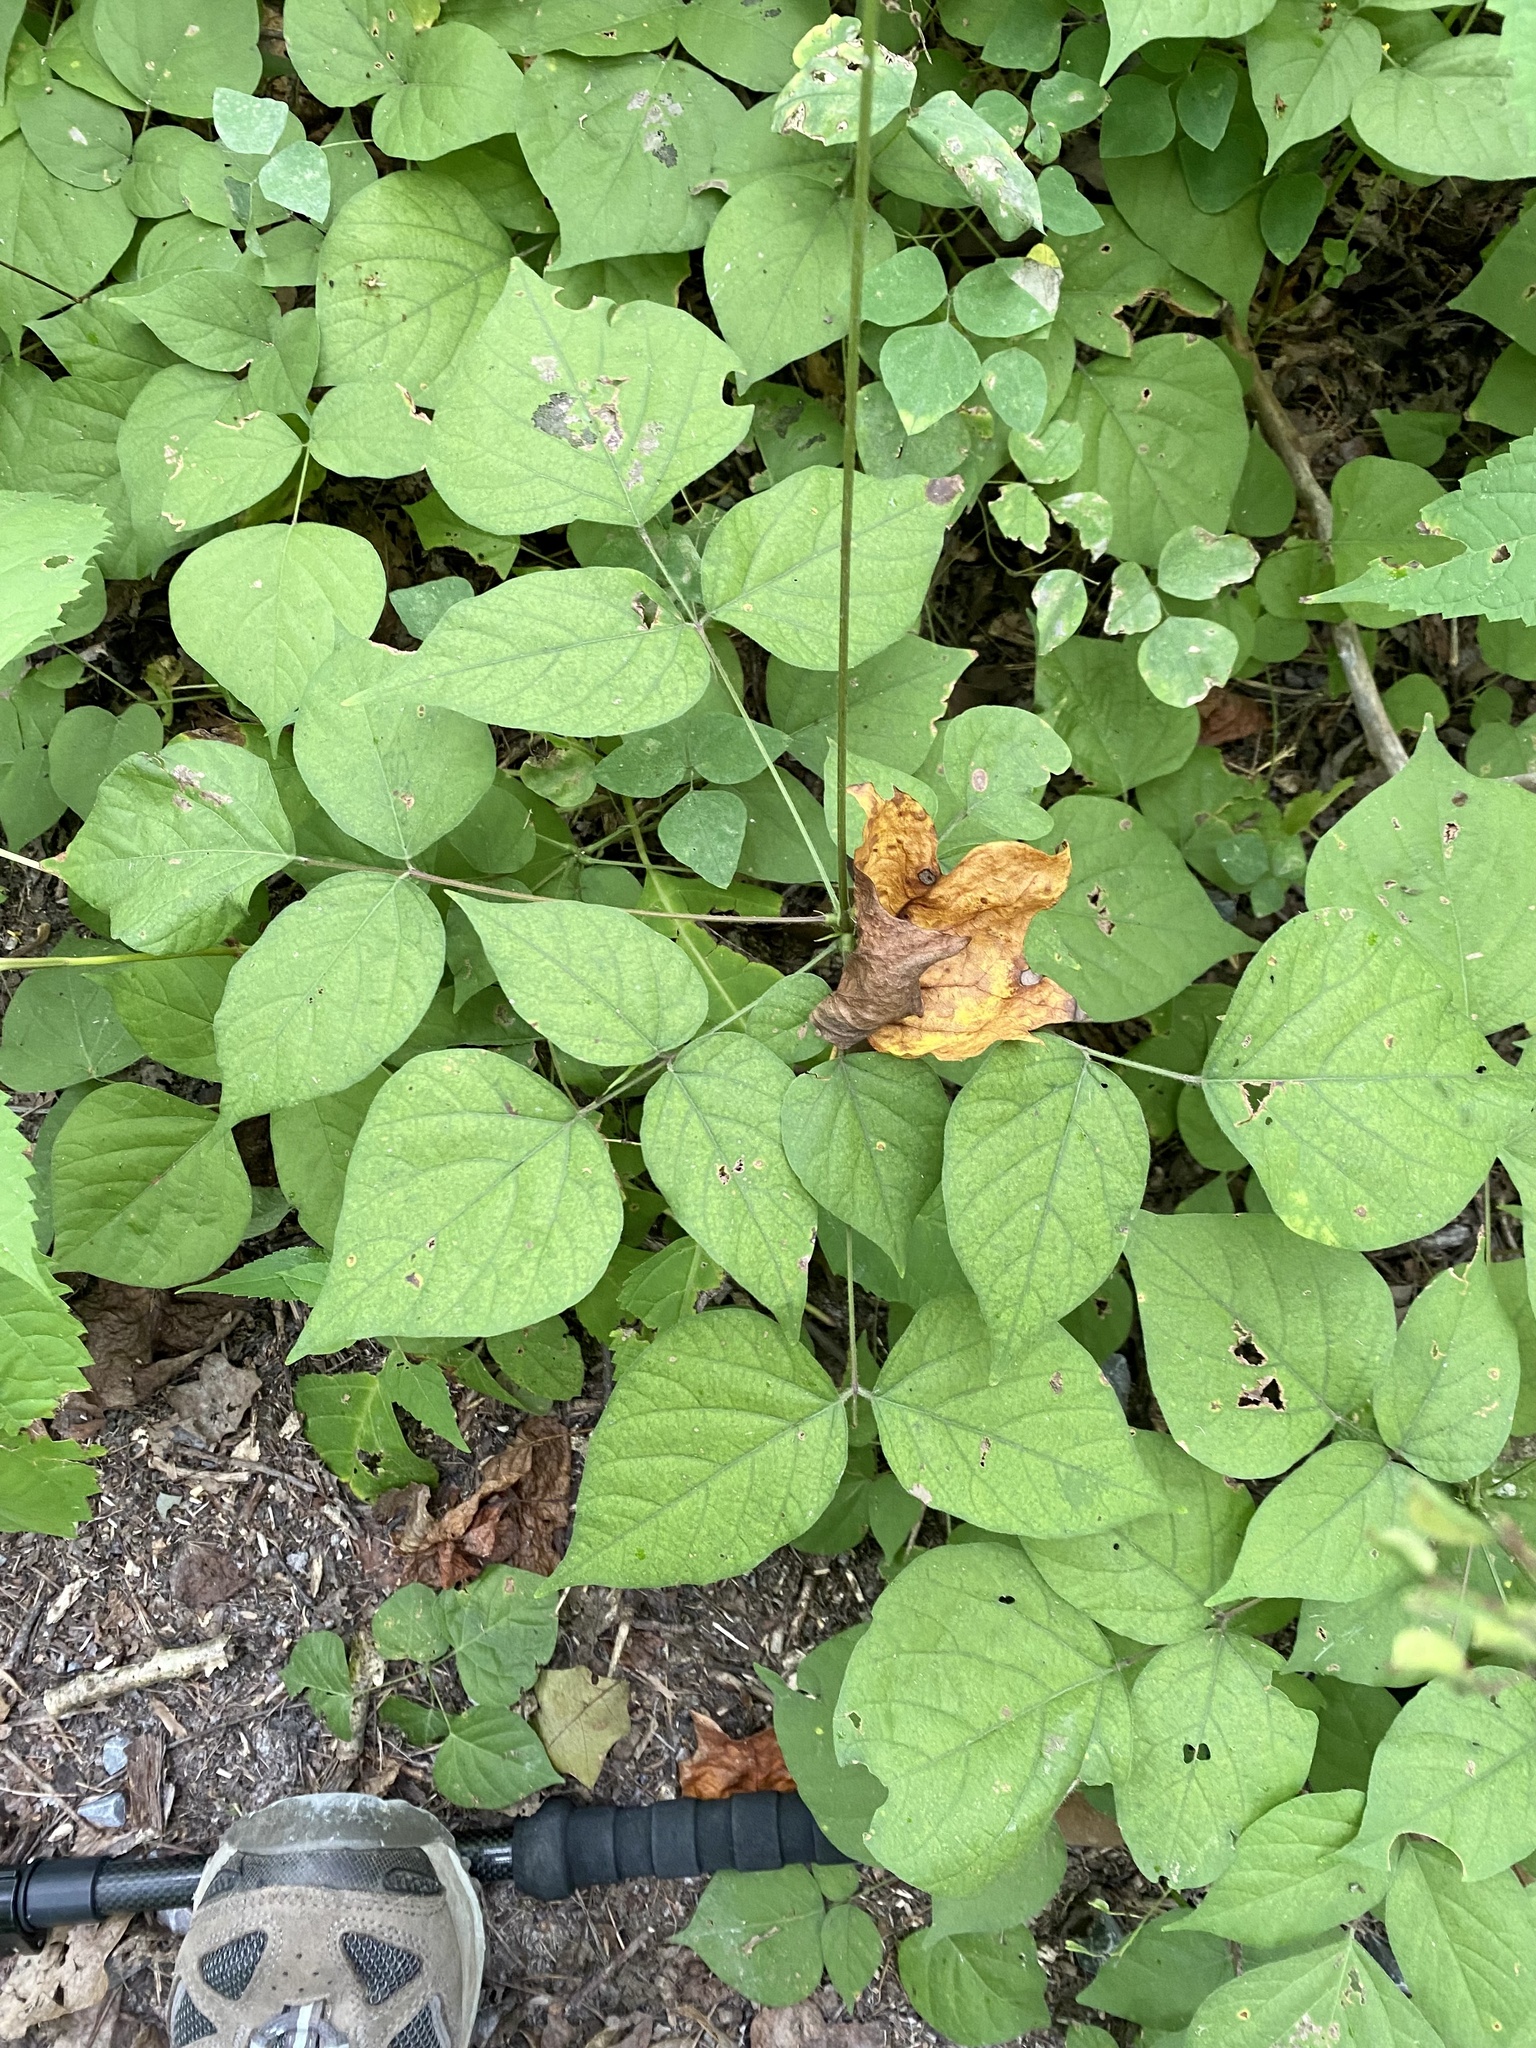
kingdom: Plantae
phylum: Tracheophyta
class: Magnoliopsida
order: Fabales
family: Fabaceae
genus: Hylodesmum
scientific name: Hylodesmum glutinosum
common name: Clustered-leaved tick-trefoil
